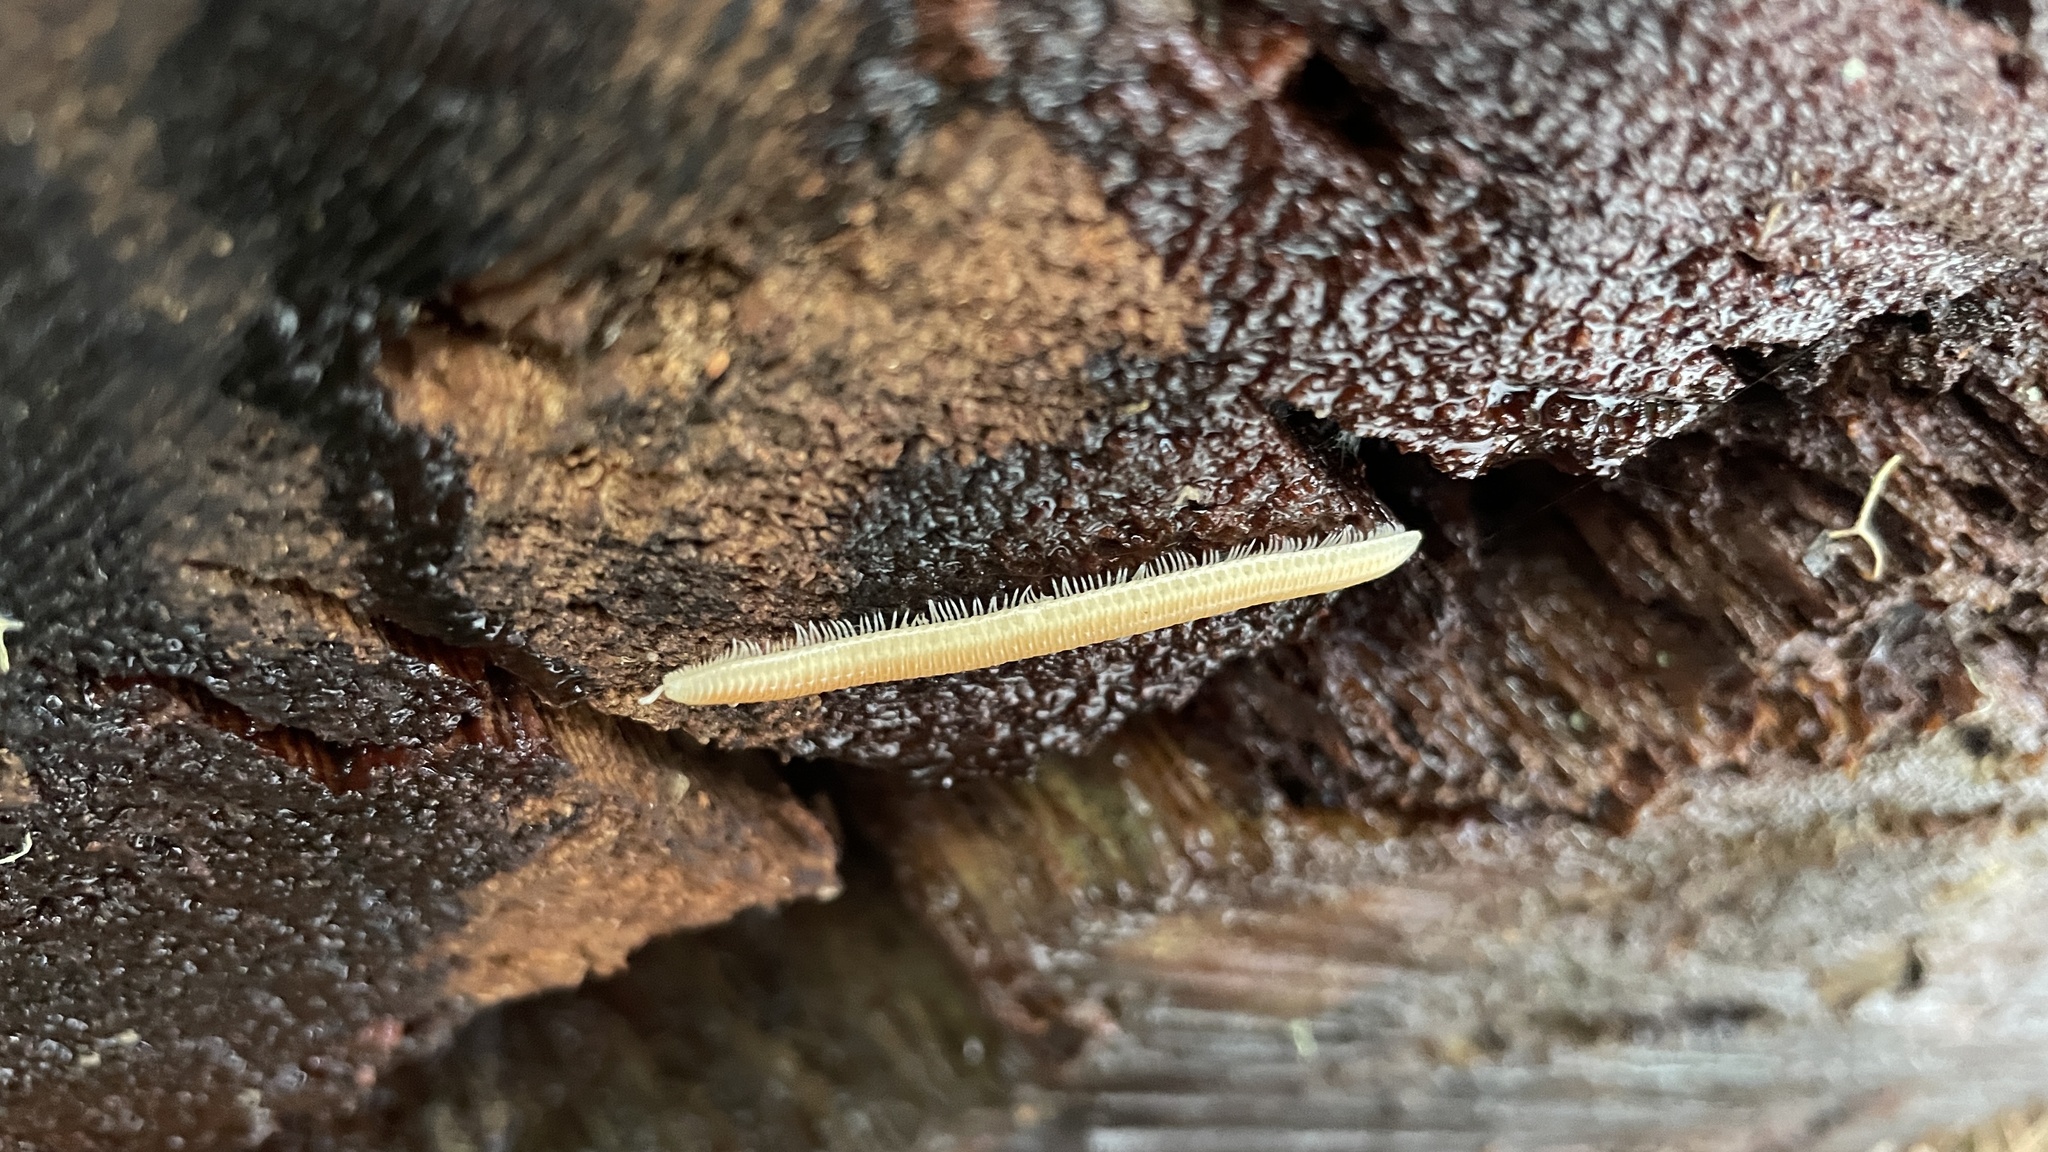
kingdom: Animalia
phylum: Arthropoda
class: Diplopoda
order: Polyzoniida
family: Polyzoniidae
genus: Buzonium
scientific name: Buzonium crassipes
